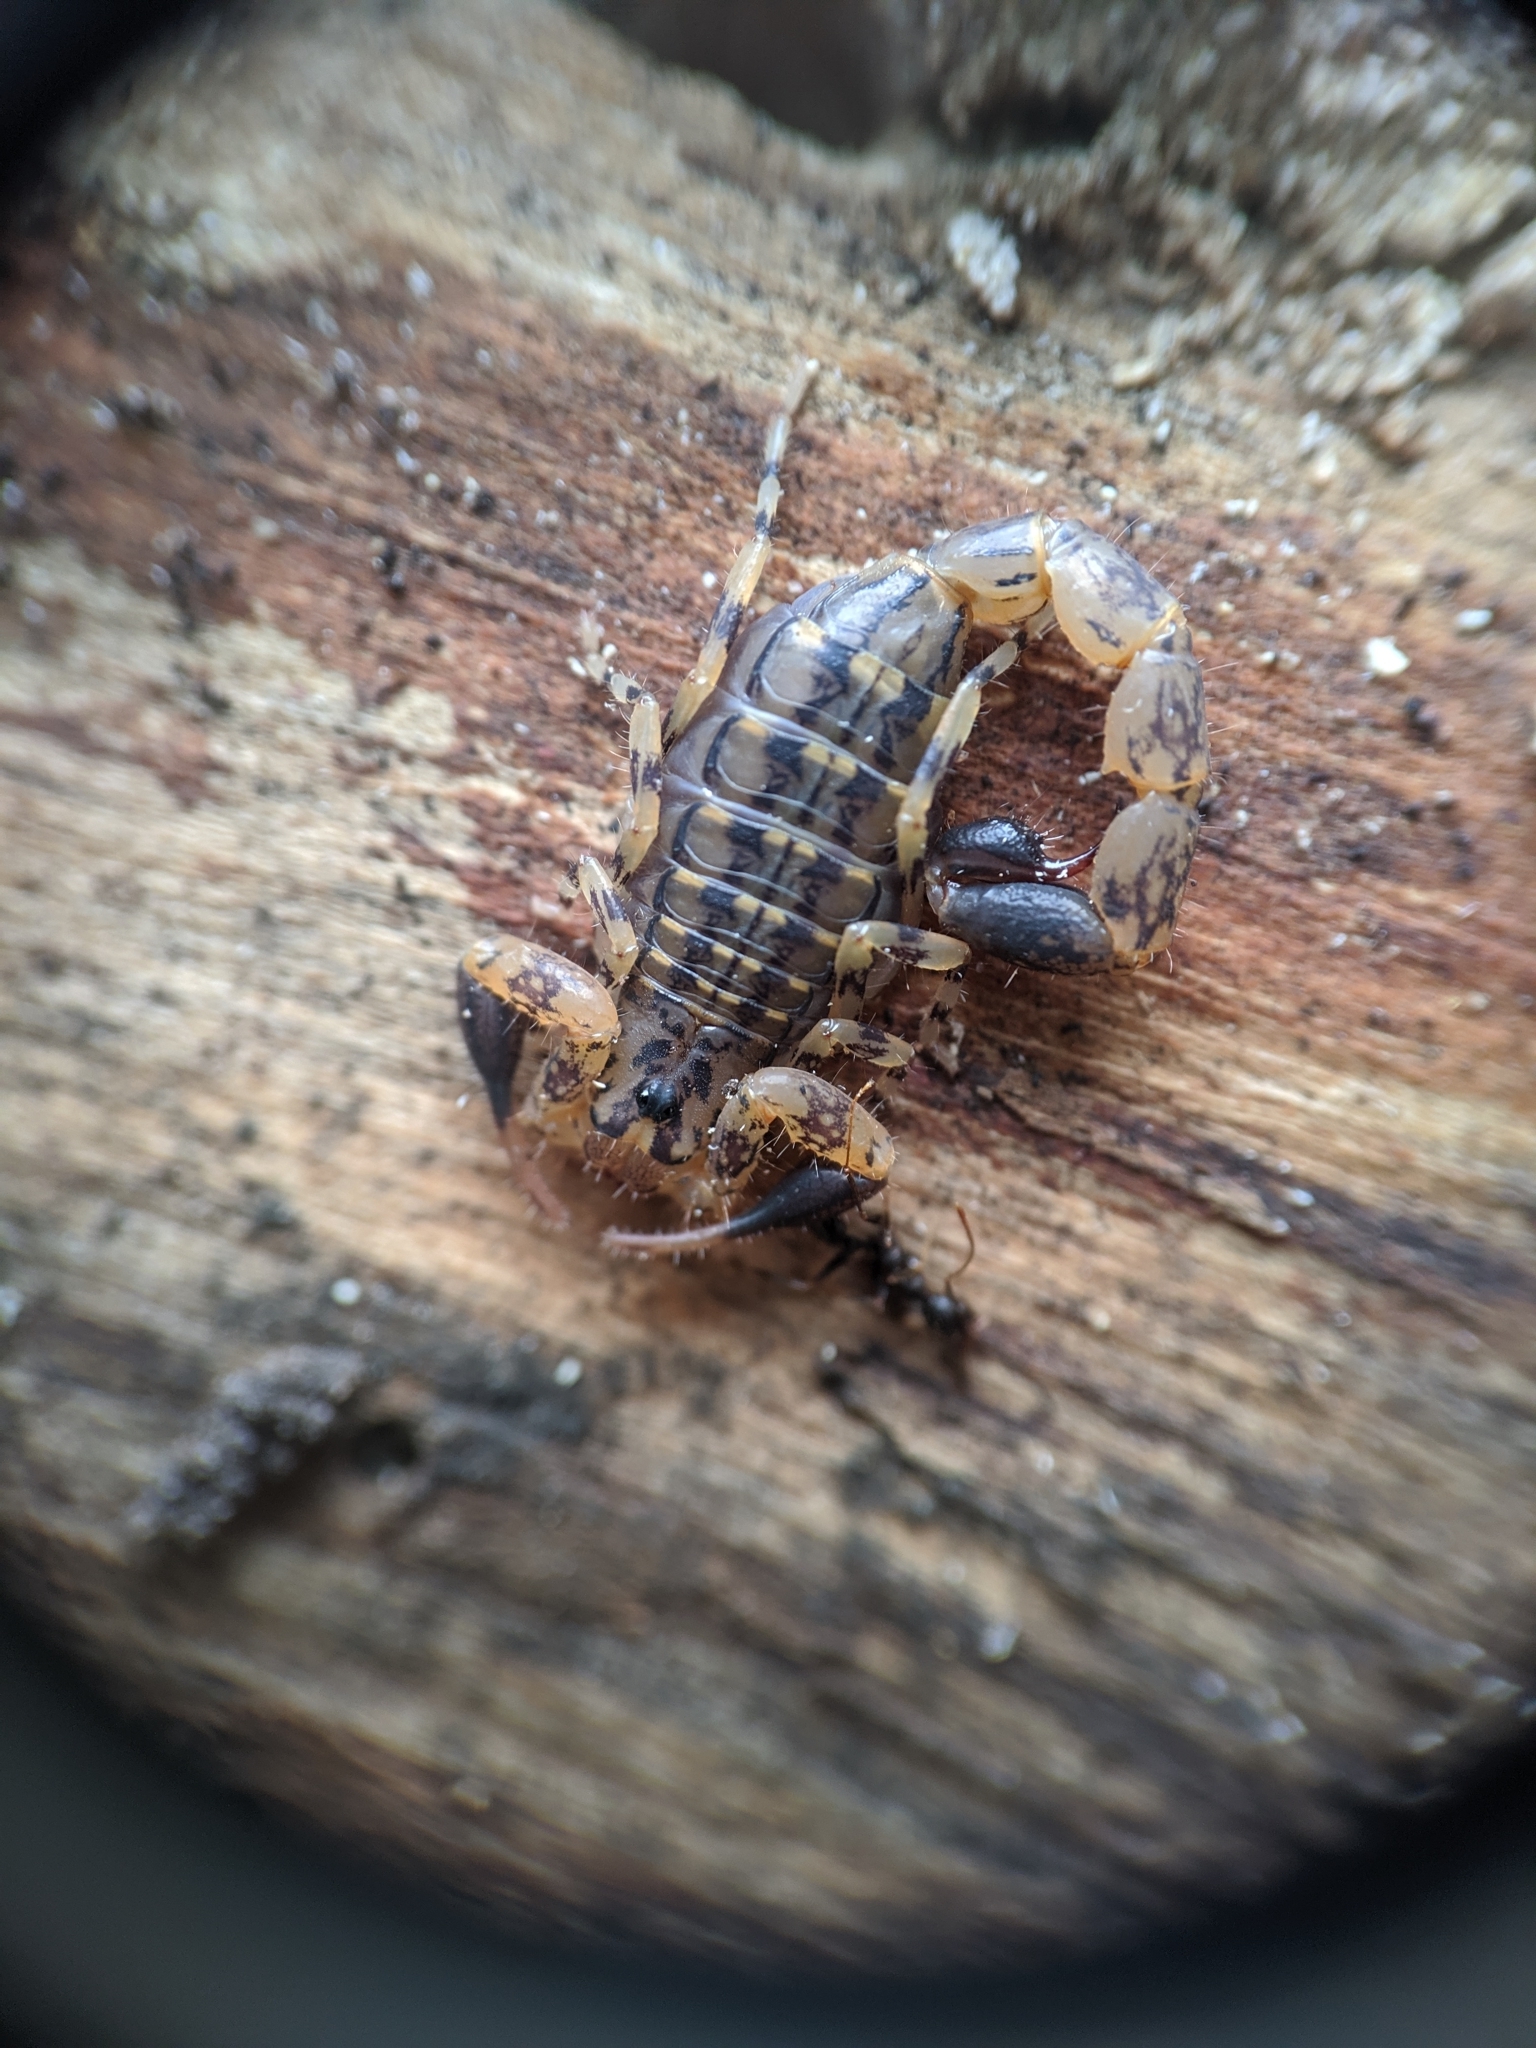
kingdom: Animalia
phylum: Arthropoda
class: Arachnida
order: Scorpiones
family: Buthidae
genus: Uroplectes
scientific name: Uroplectes formosus
